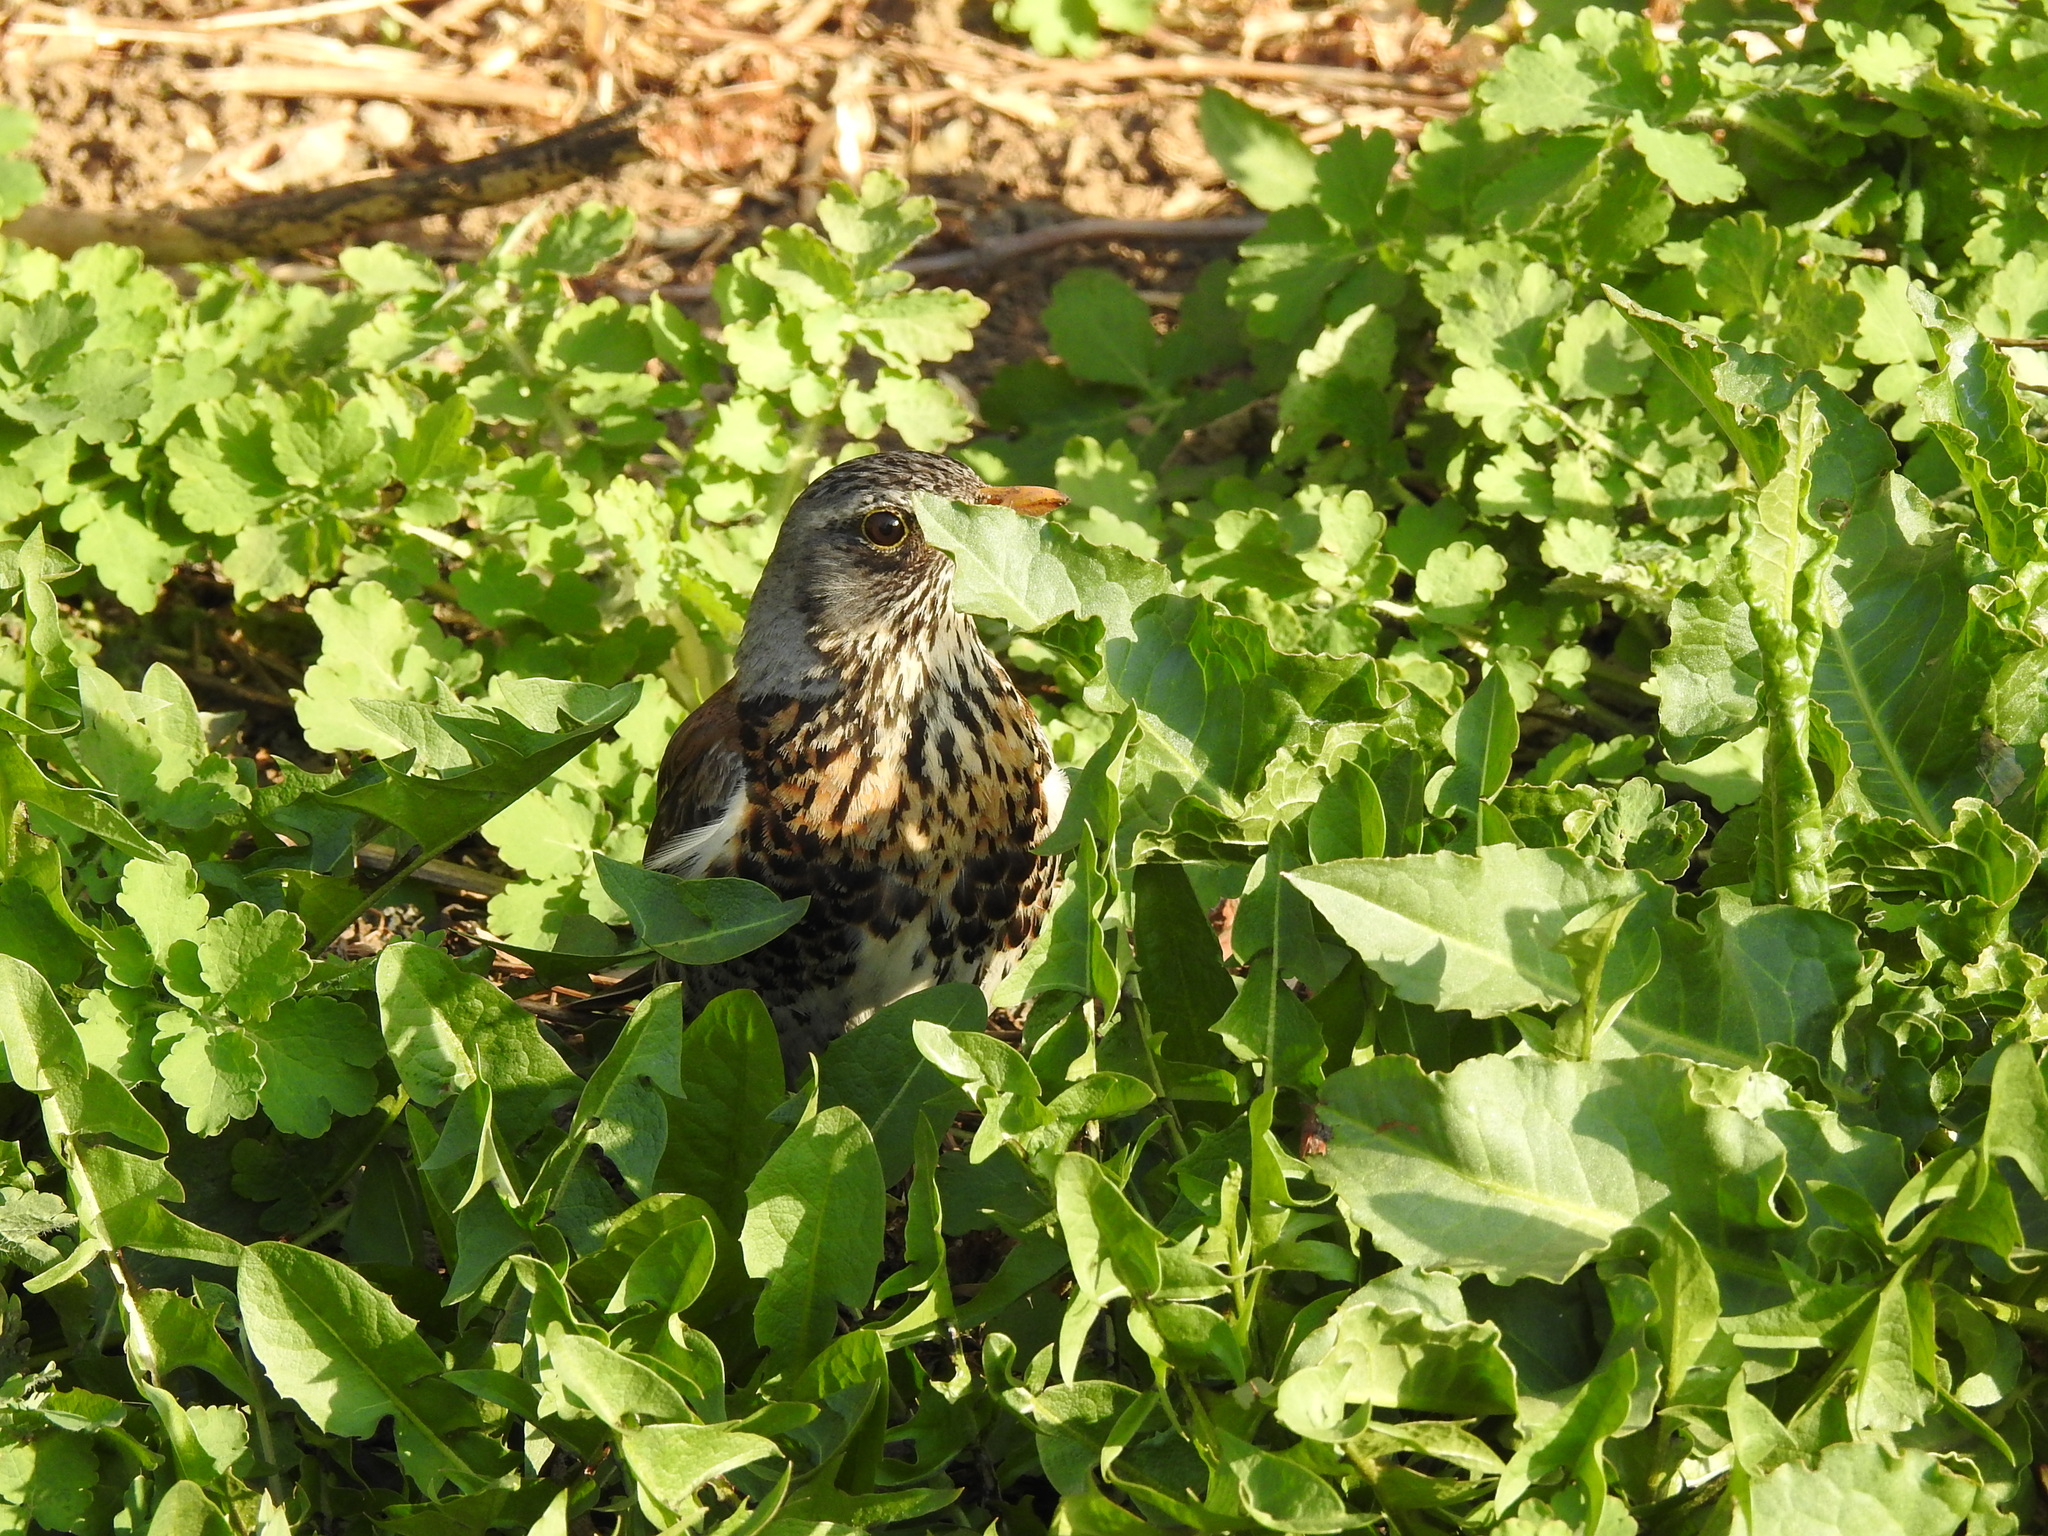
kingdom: Animalia
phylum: Chordata
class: Aves
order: Passeriformes
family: Turdidae
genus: Turdus
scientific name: Turdus pilaris
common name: Fieldfare
